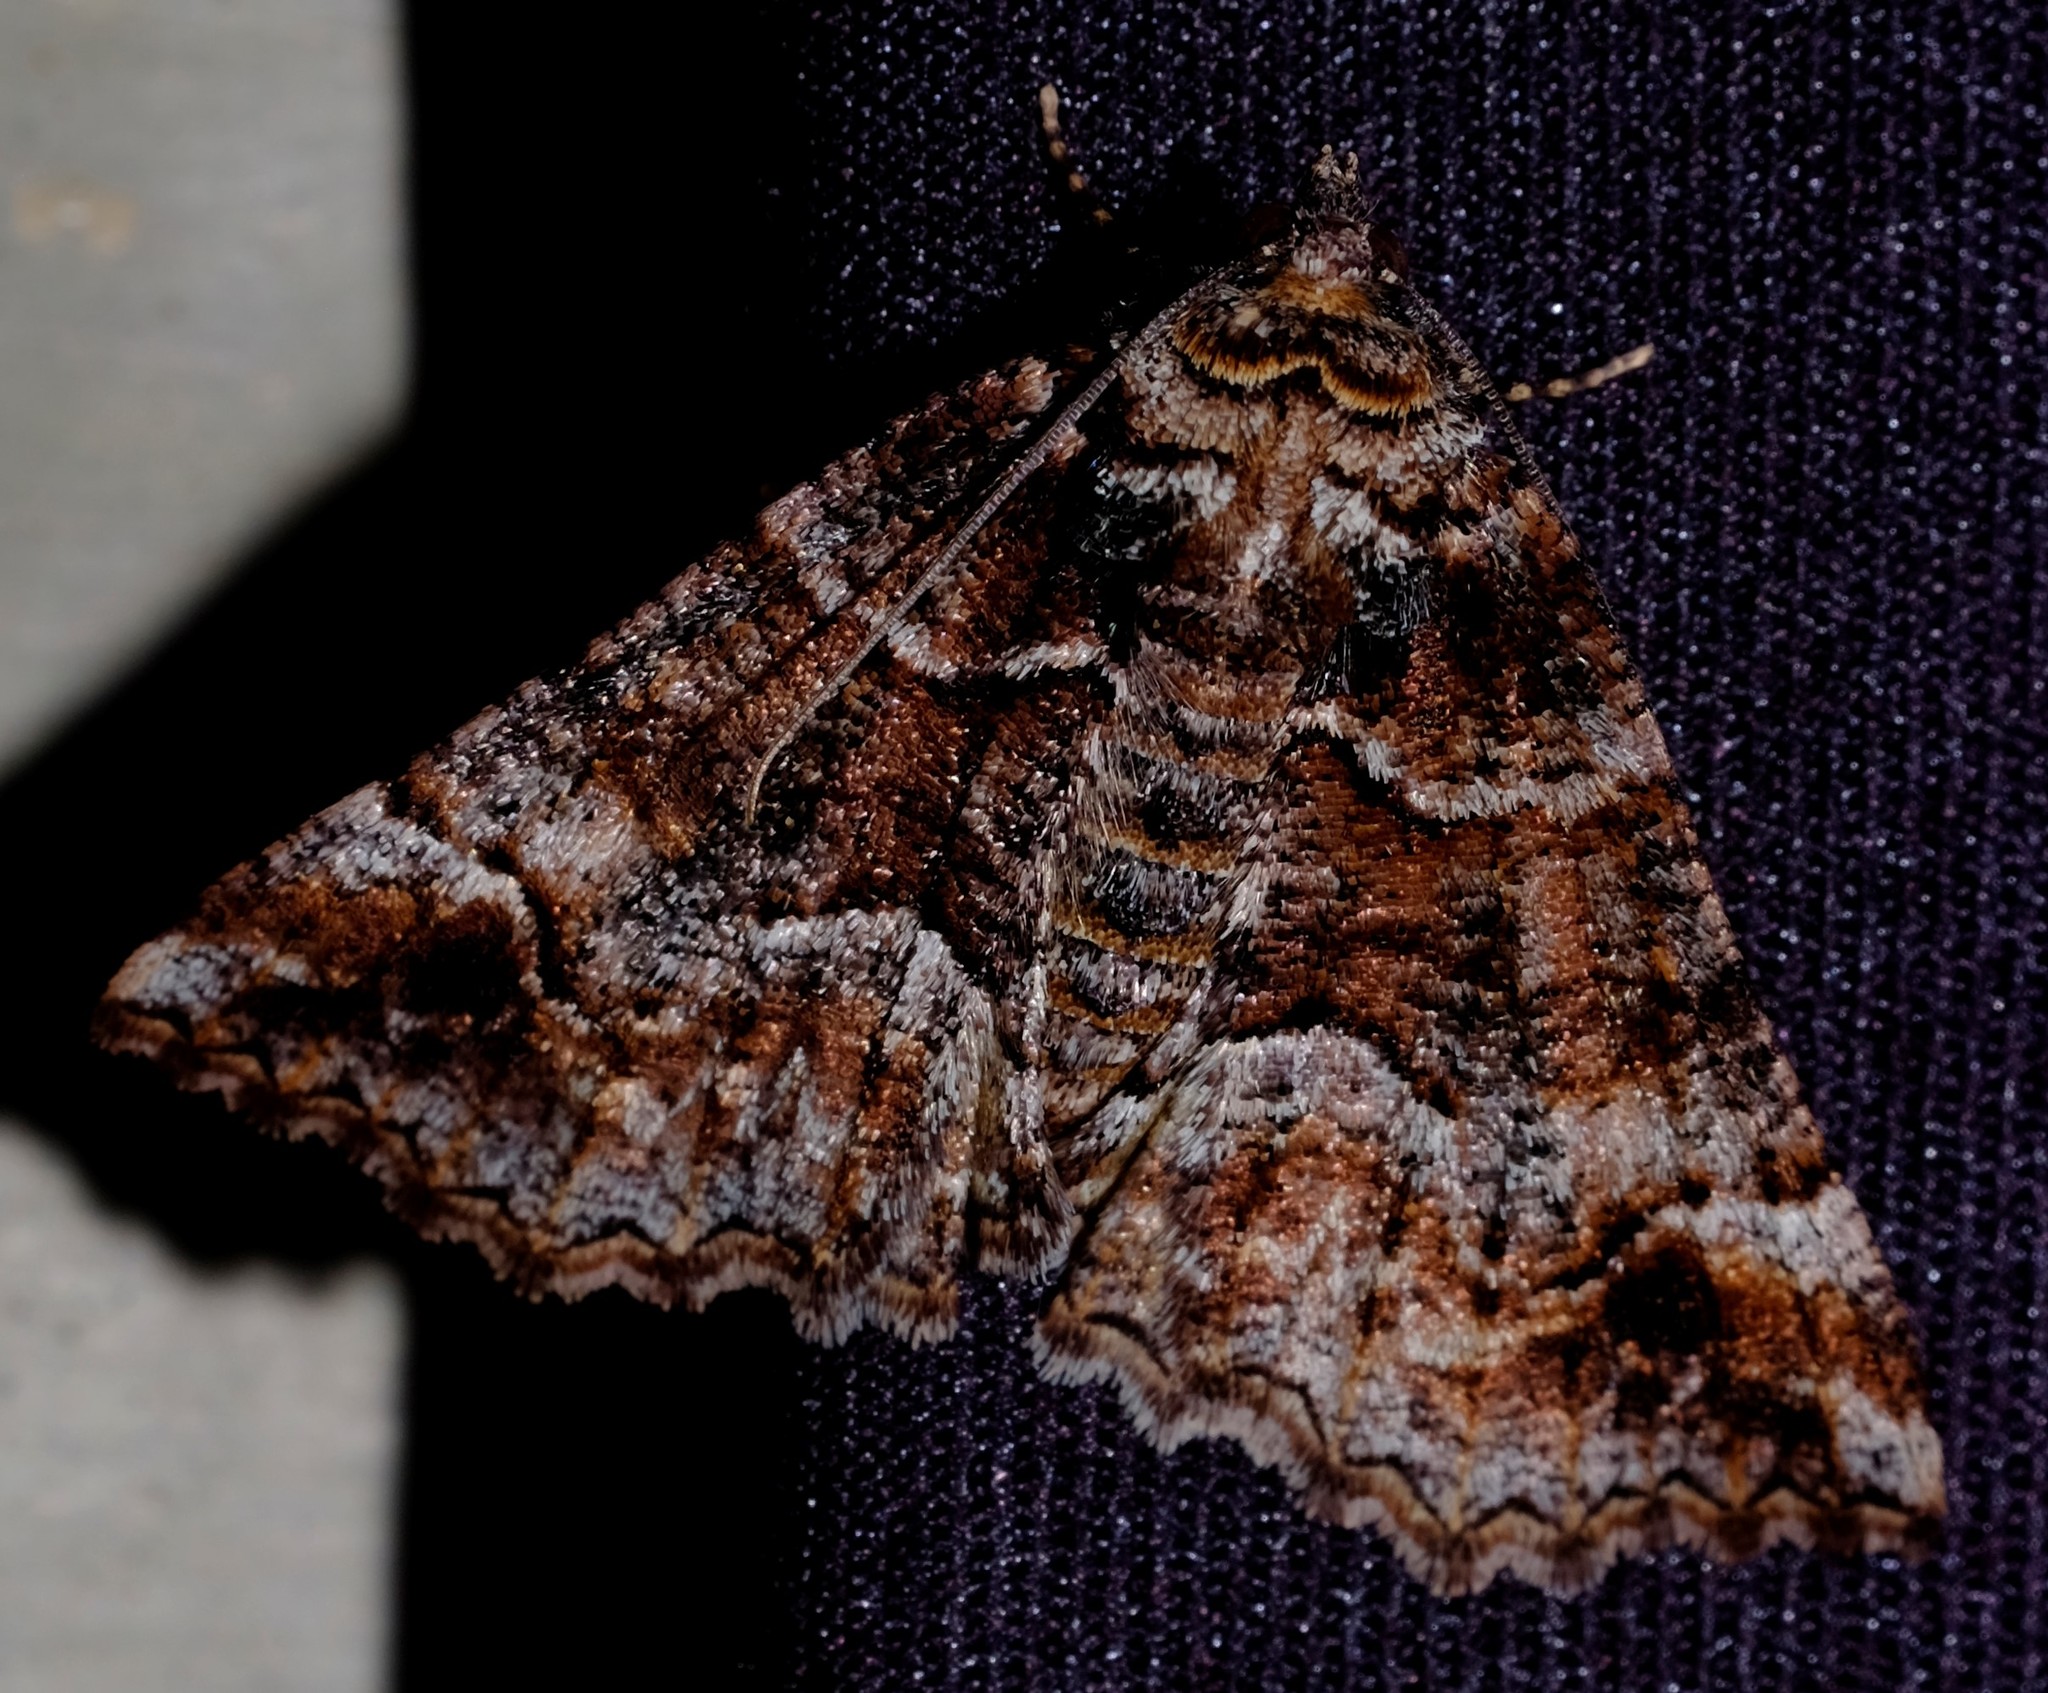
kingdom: Animalia
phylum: Arthropoda
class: Insecta
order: Lepidoptera
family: Geometridae
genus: Gastrina
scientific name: Gastrina cristaria
